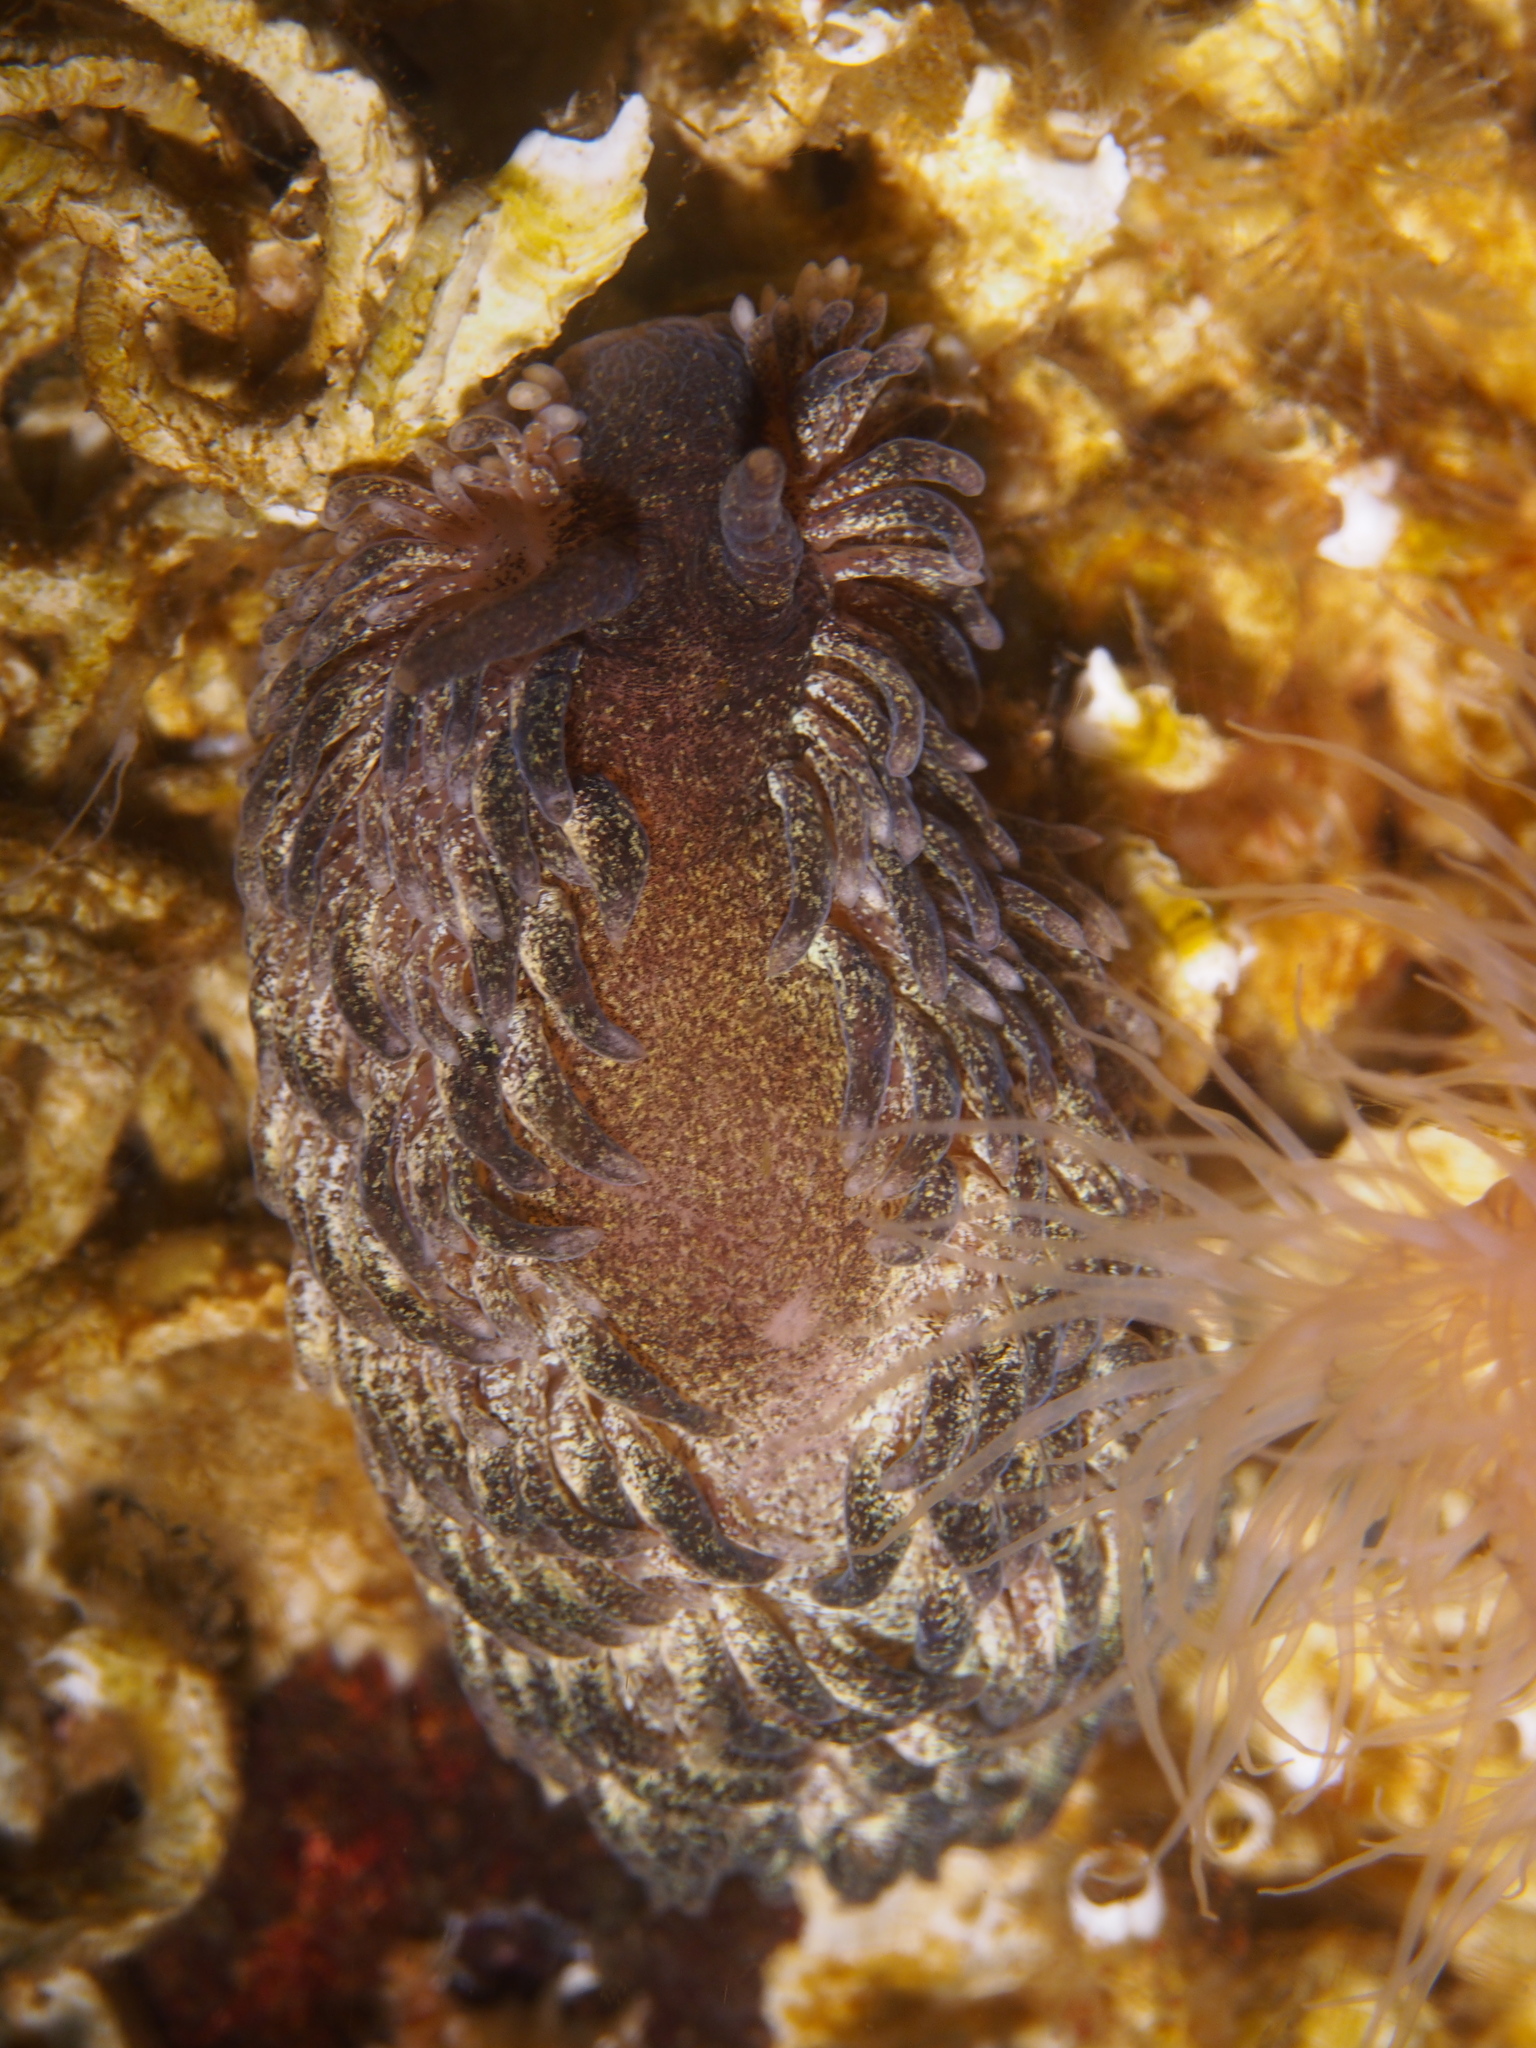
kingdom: Animalia
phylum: Mollusca
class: Gastropoda
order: Nudibranchia
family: Aeolidiidae
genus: Aeolidia
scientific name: Aeolidia papillosa
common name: Common grey sea slug
